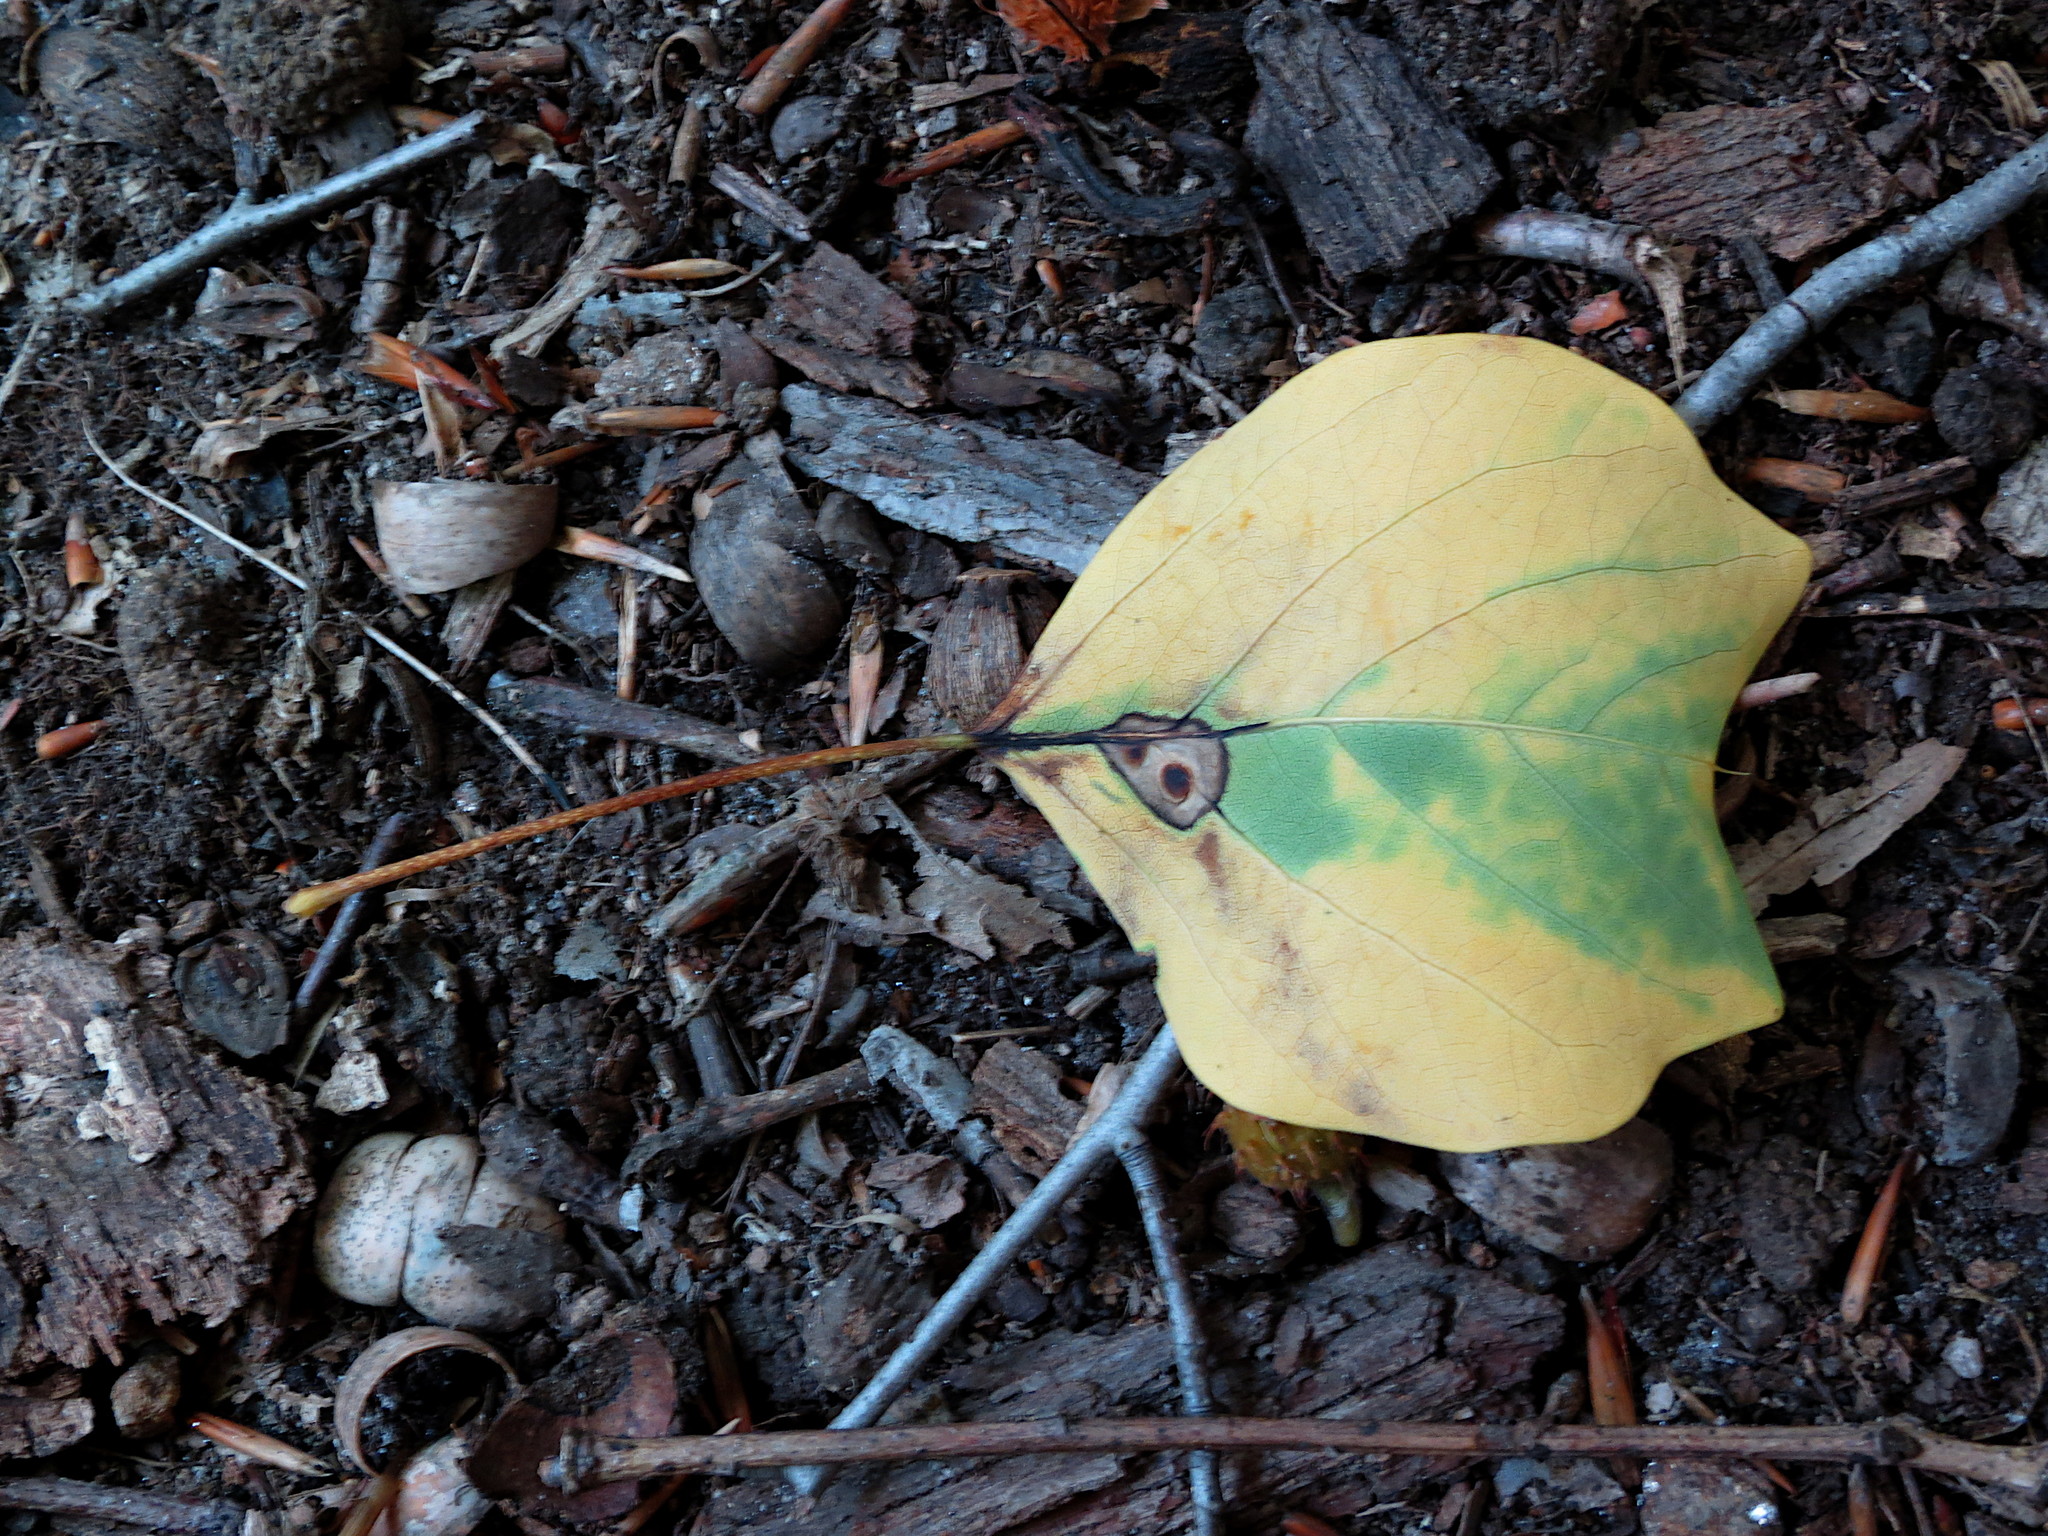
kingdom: Plantae
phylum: Tracheophyta
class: Magnoliopsida
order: Magnoliales
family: Magnoliaceae
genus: Liriodendron
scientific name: Liriodendron tulipifera
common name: Tulip tree
